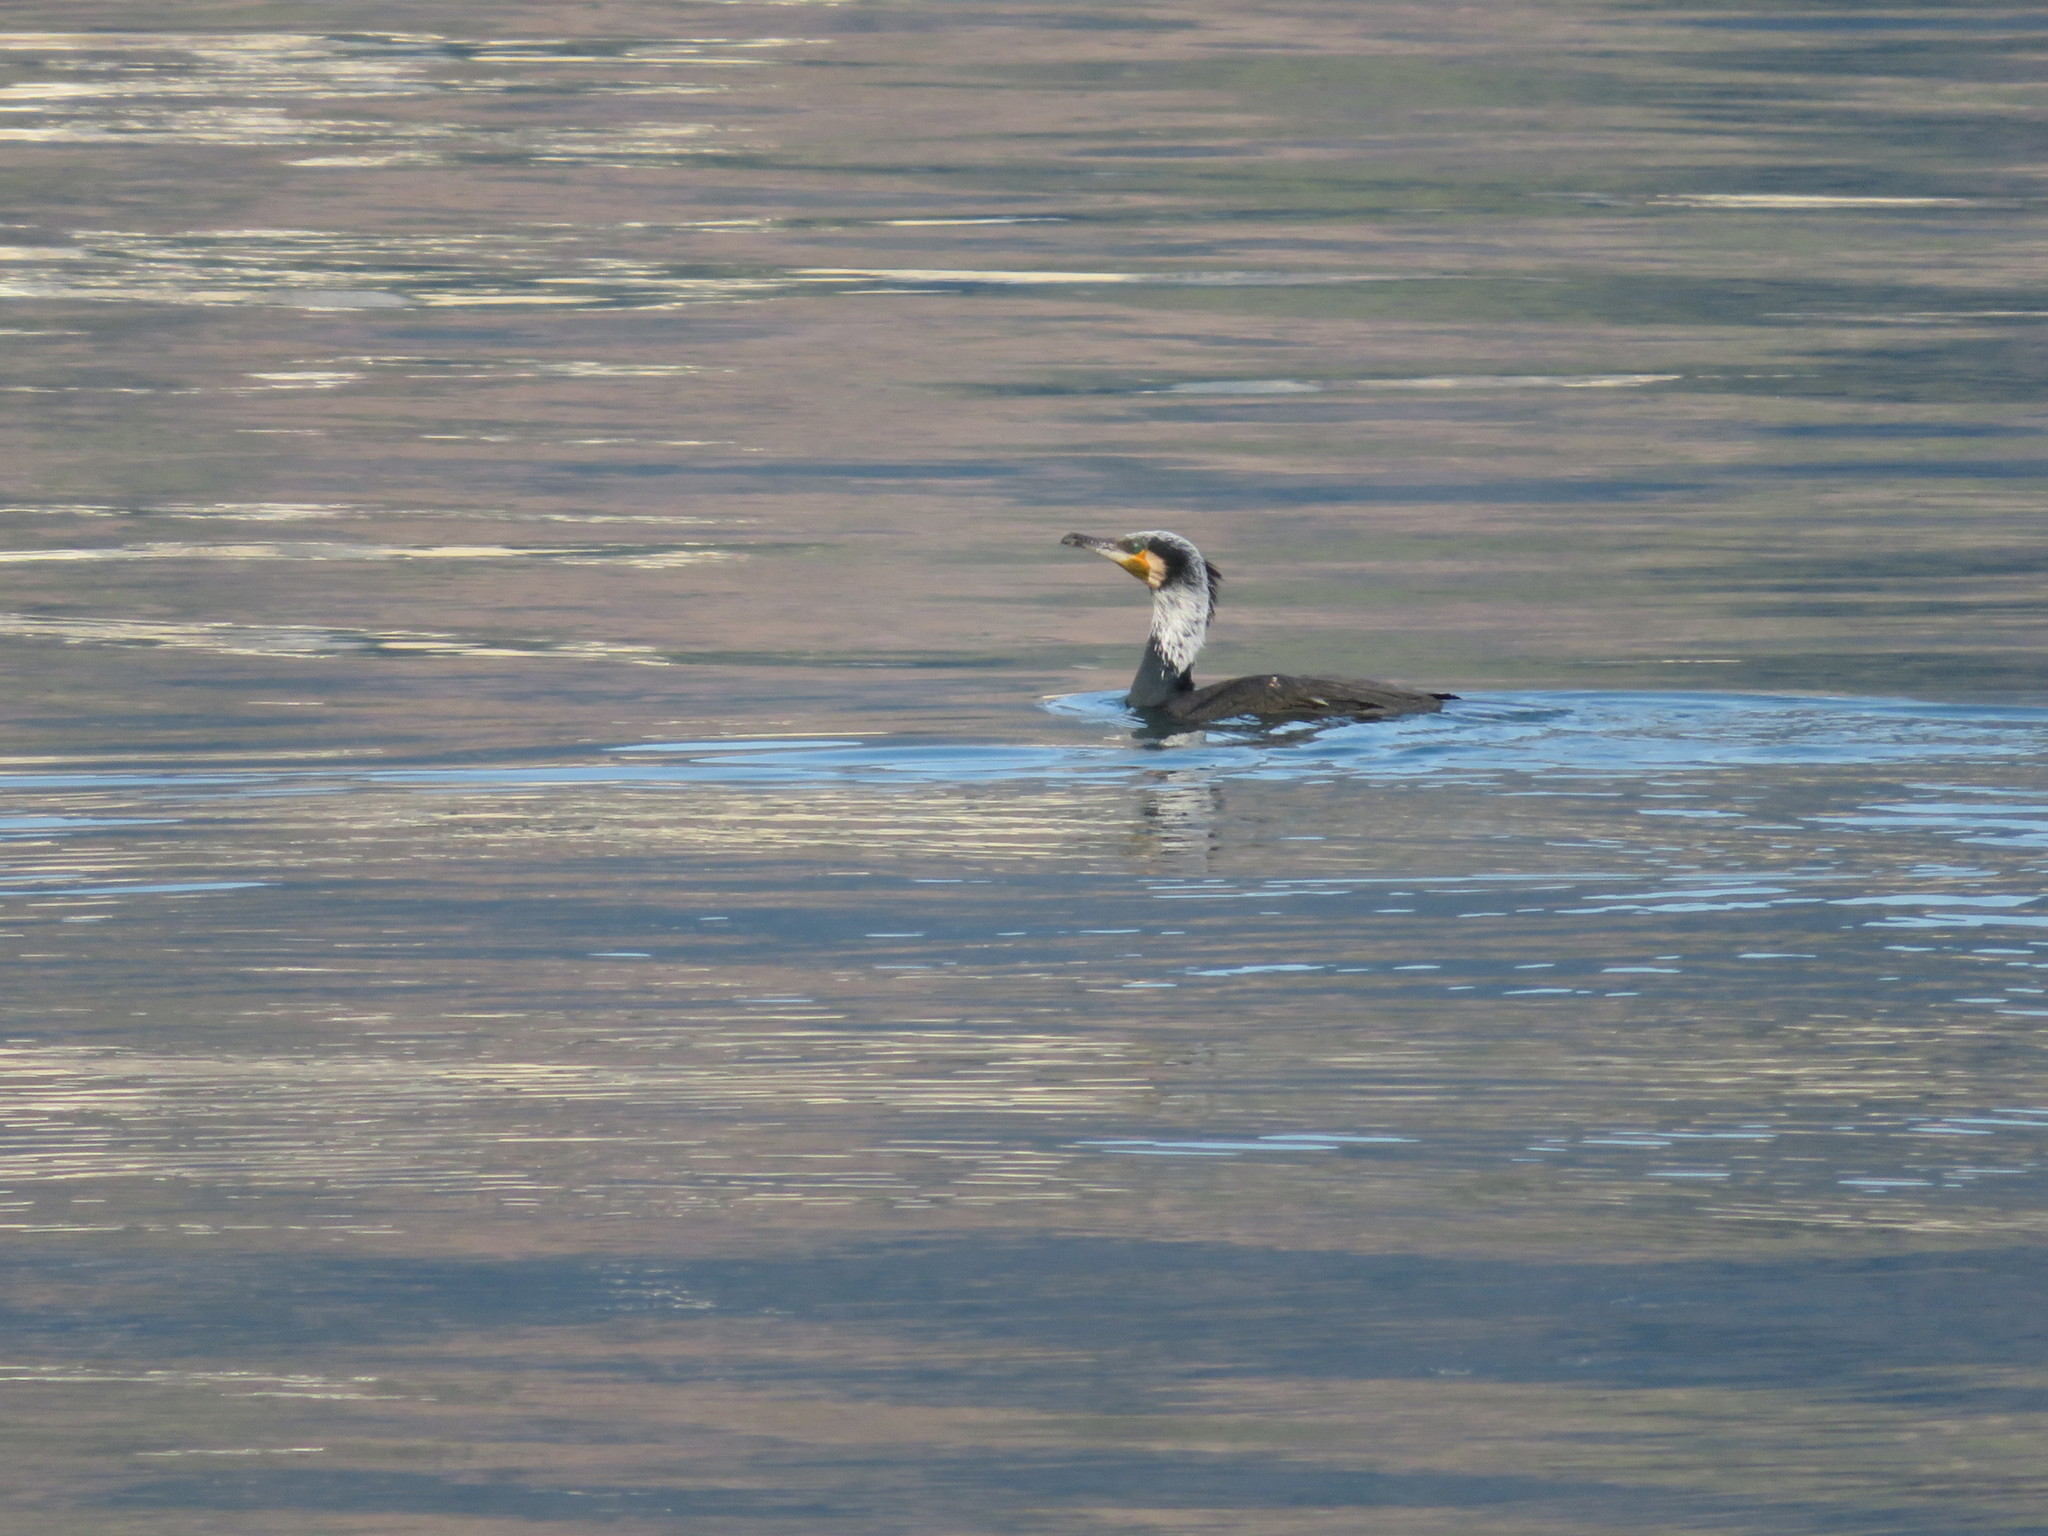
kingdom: Animalia
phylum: Chordata
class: Aves
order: Suliformes
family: Phalacrocoracidae
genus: Phalacrocorax
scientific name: Phalacrocorax carbo
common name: Great cormorant
